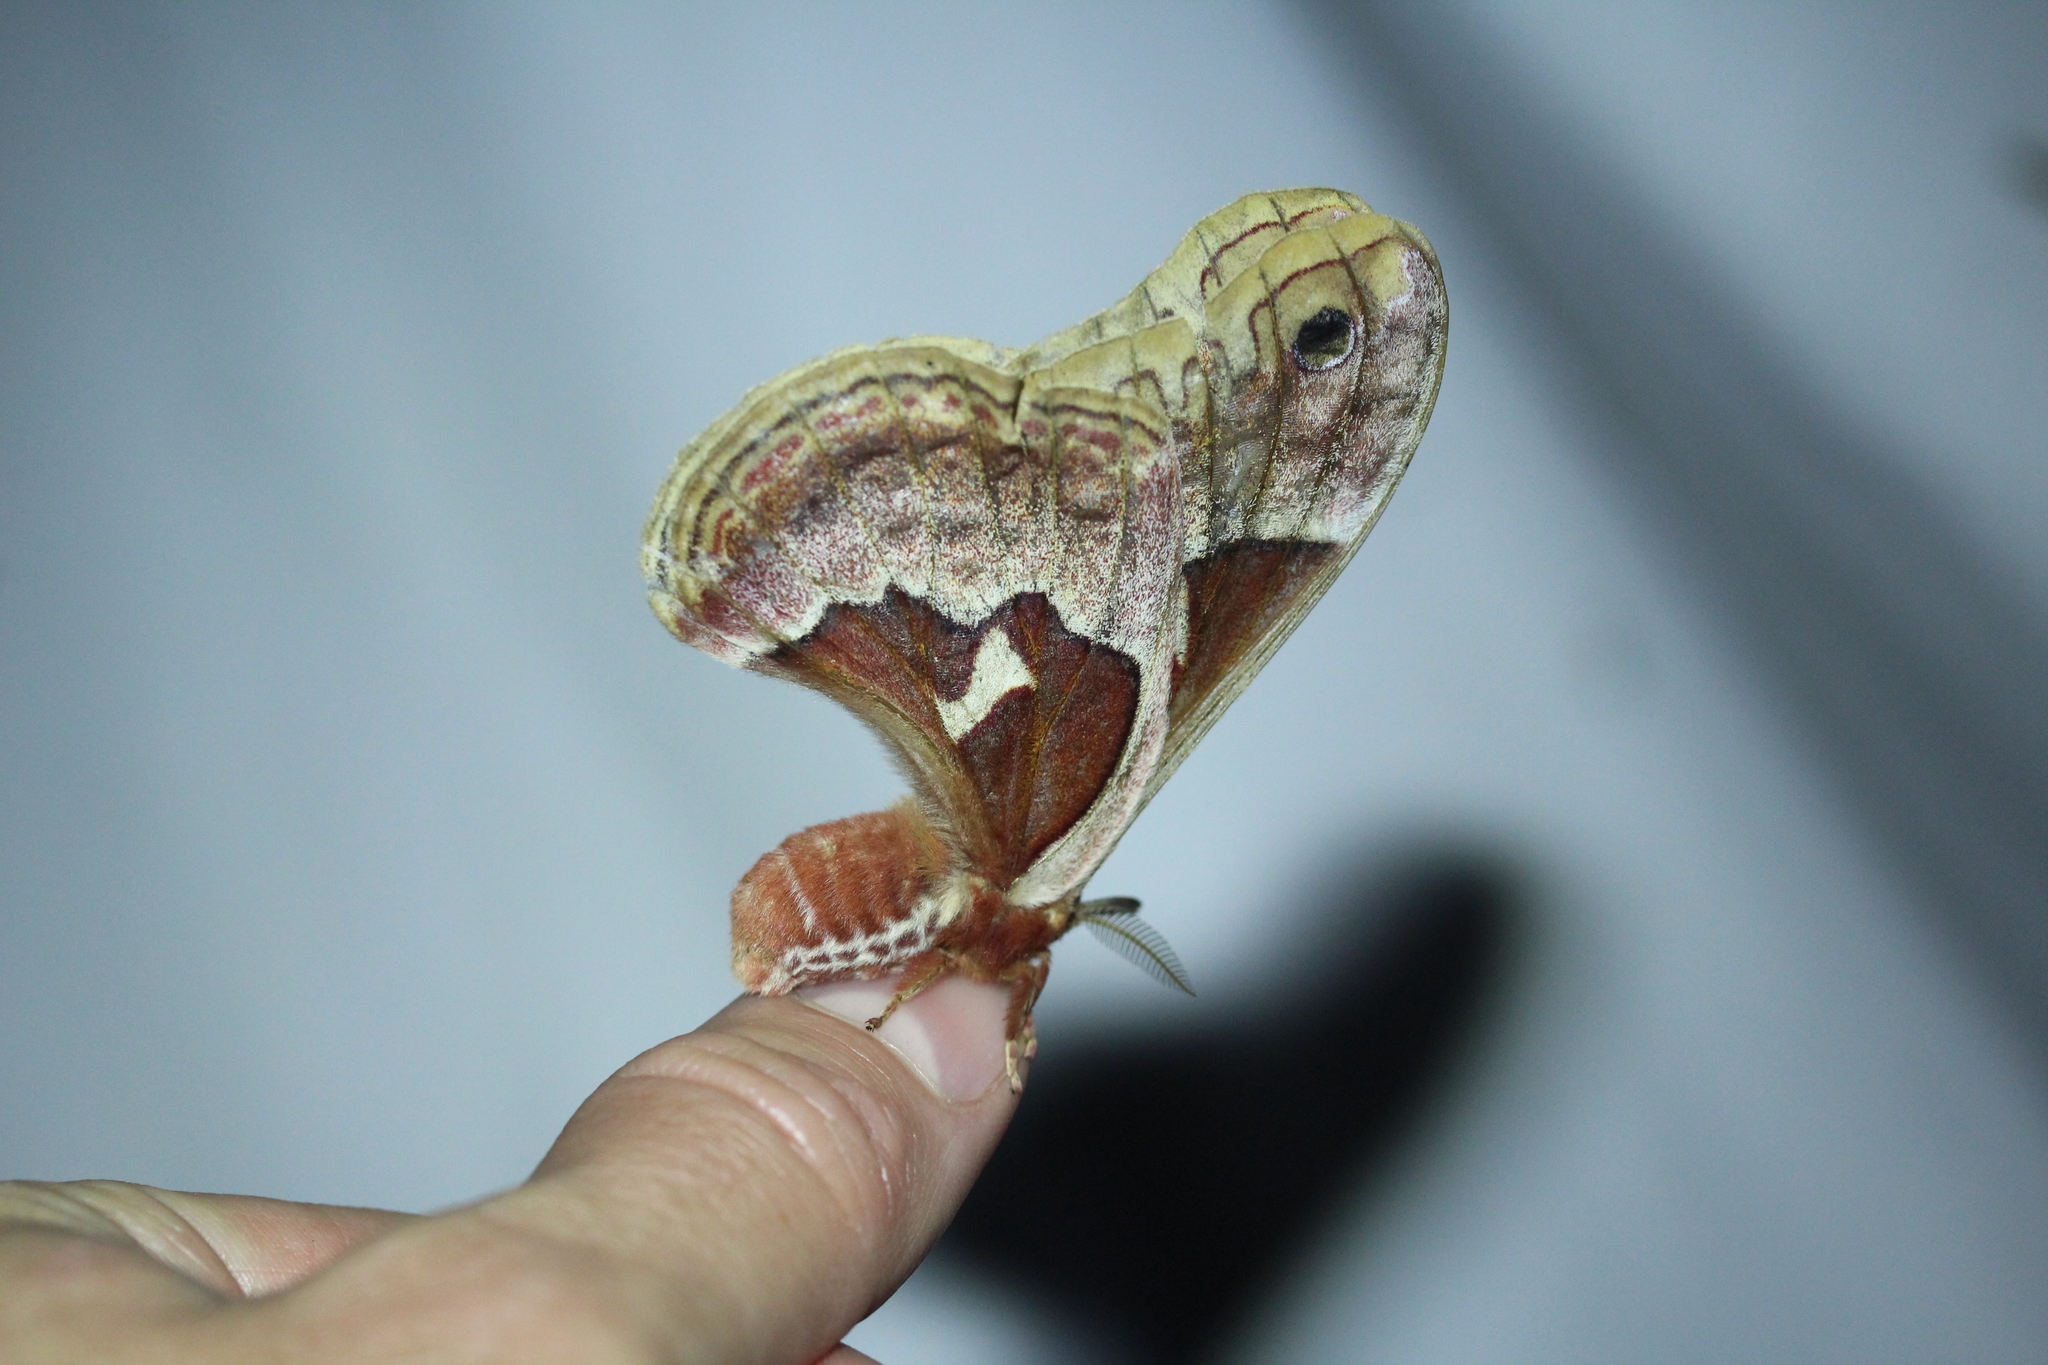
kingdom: Animalia
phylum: Arthropoda
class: Insecta
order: Lepidoptera
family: Saturniidae
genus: Callosamia
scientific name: Callosamia promethea
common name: Promethea silkmoth
